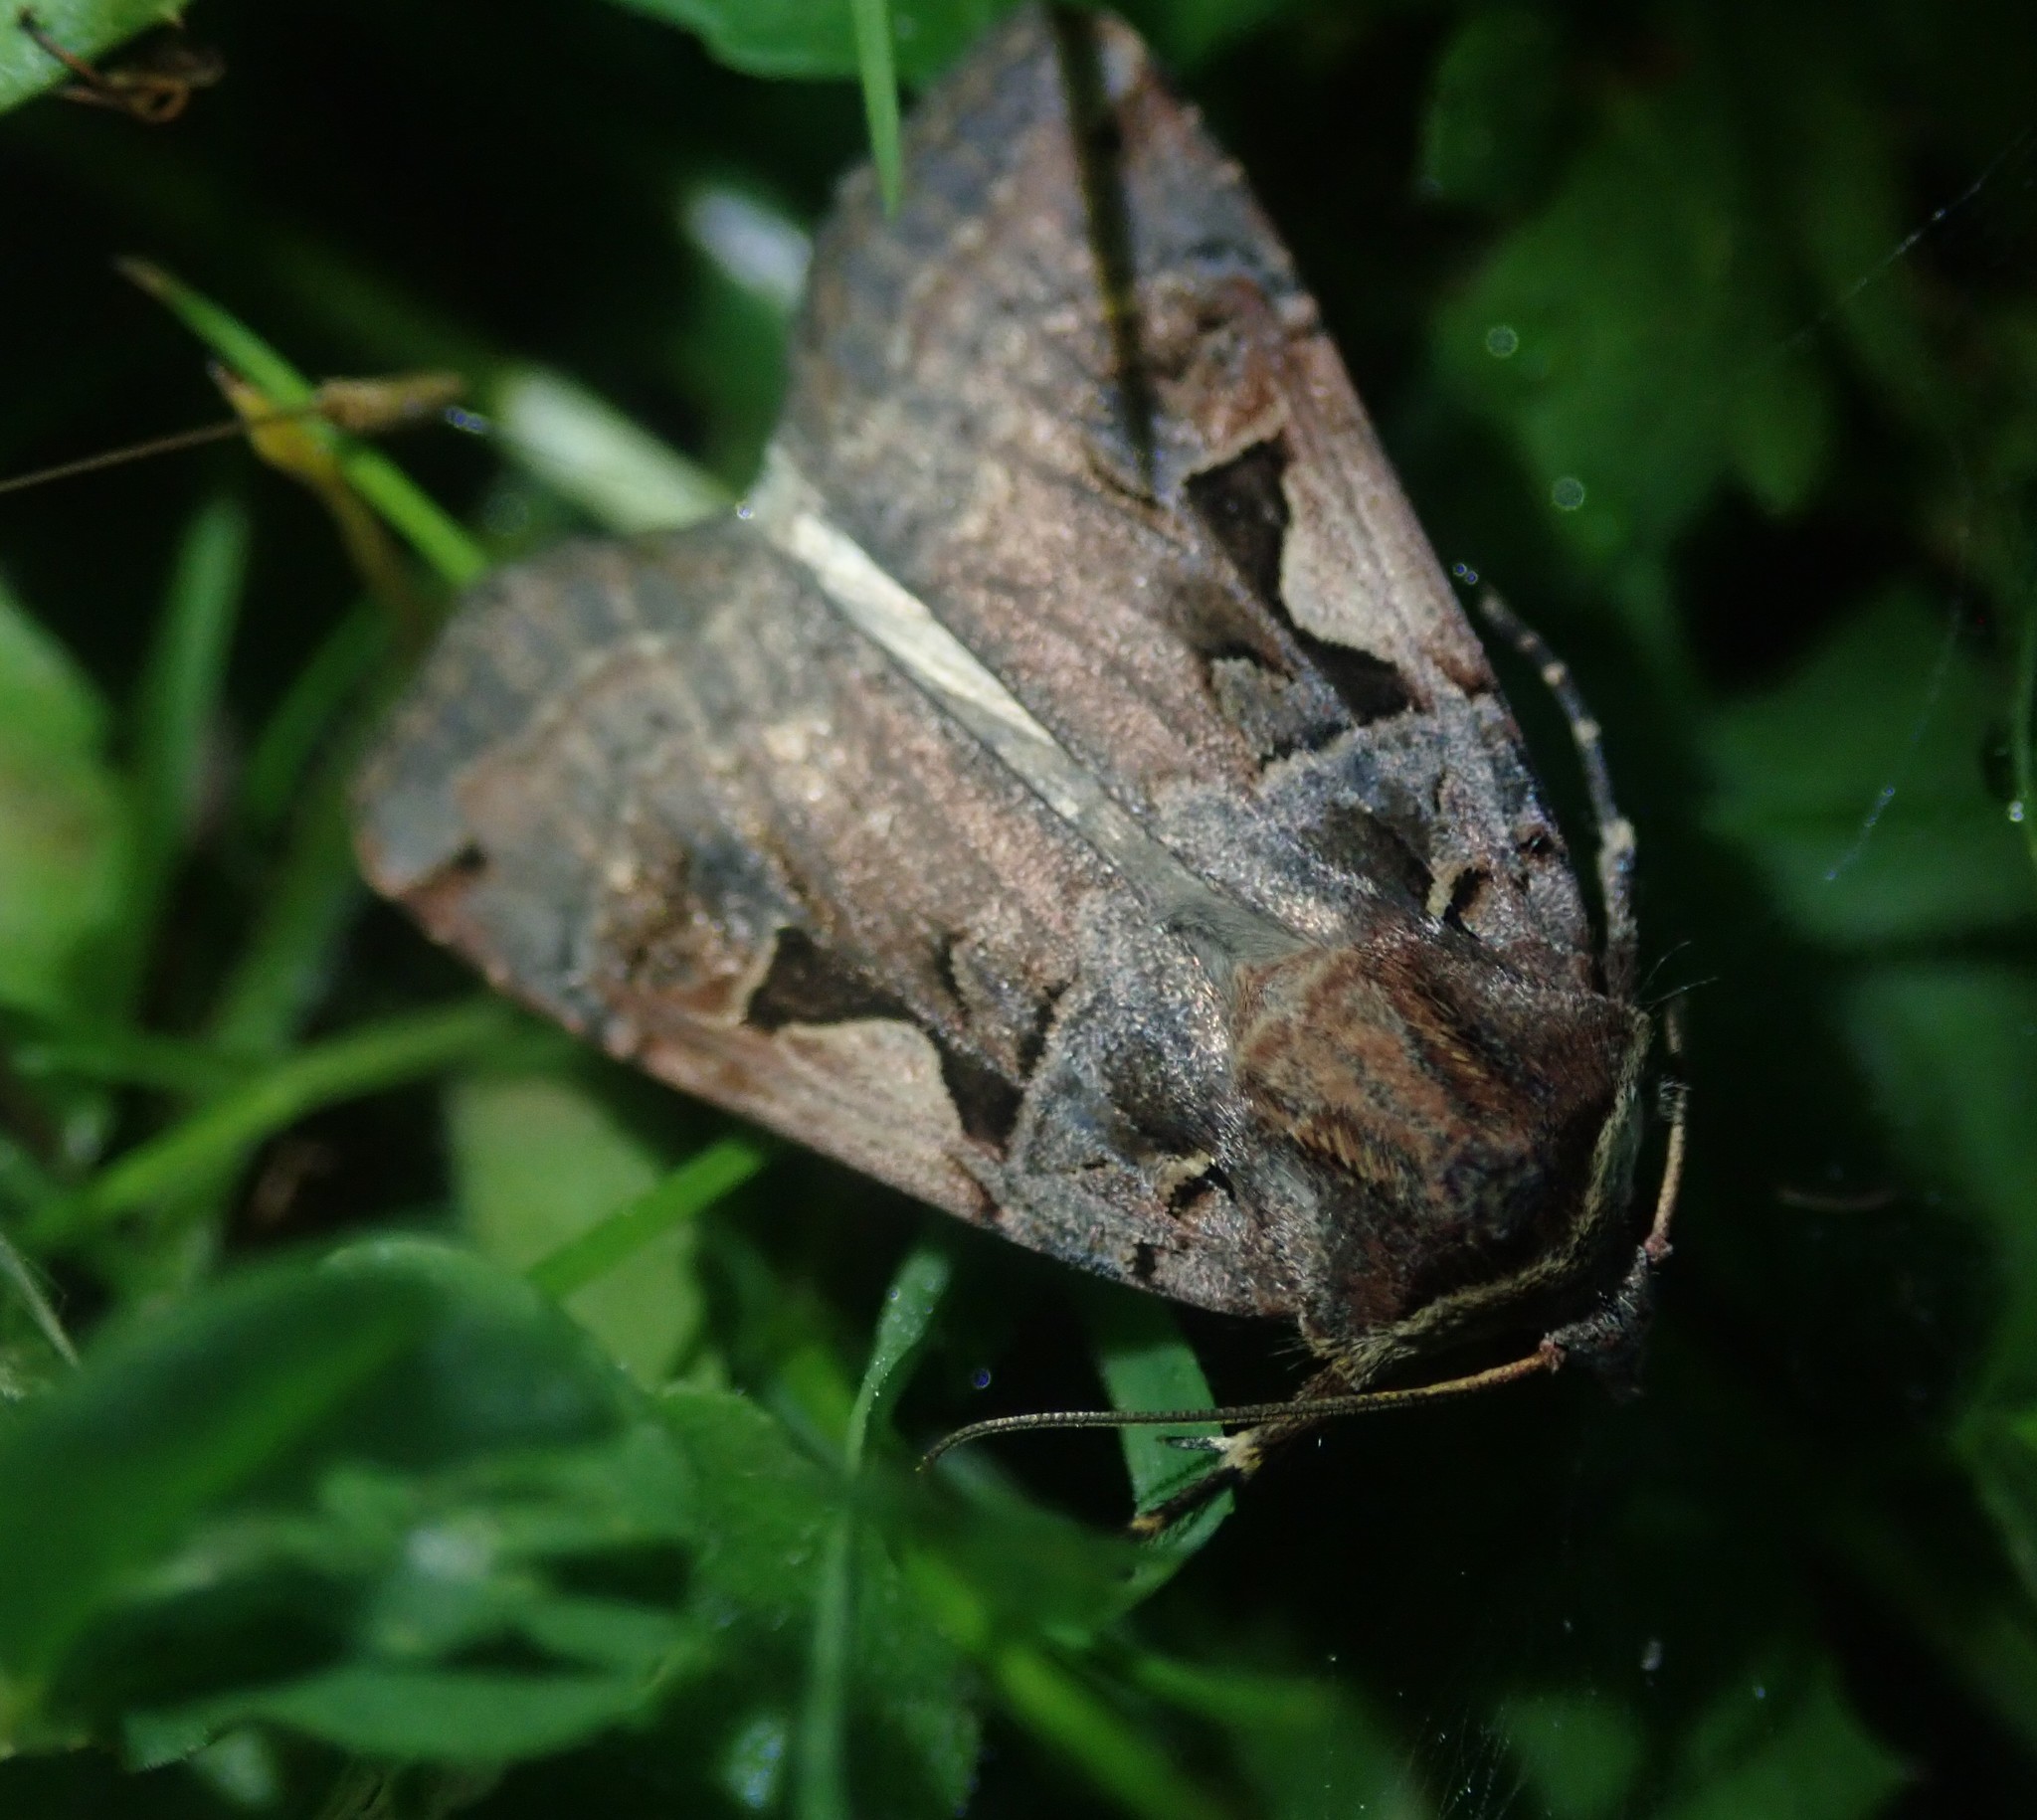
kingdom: Animalia
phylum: Arthropoda
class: Insecta
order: Lepidoptera
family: Noctuidae
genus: Xestia
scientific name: Xestia c-nigrum
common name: Setaceous hebrew character
